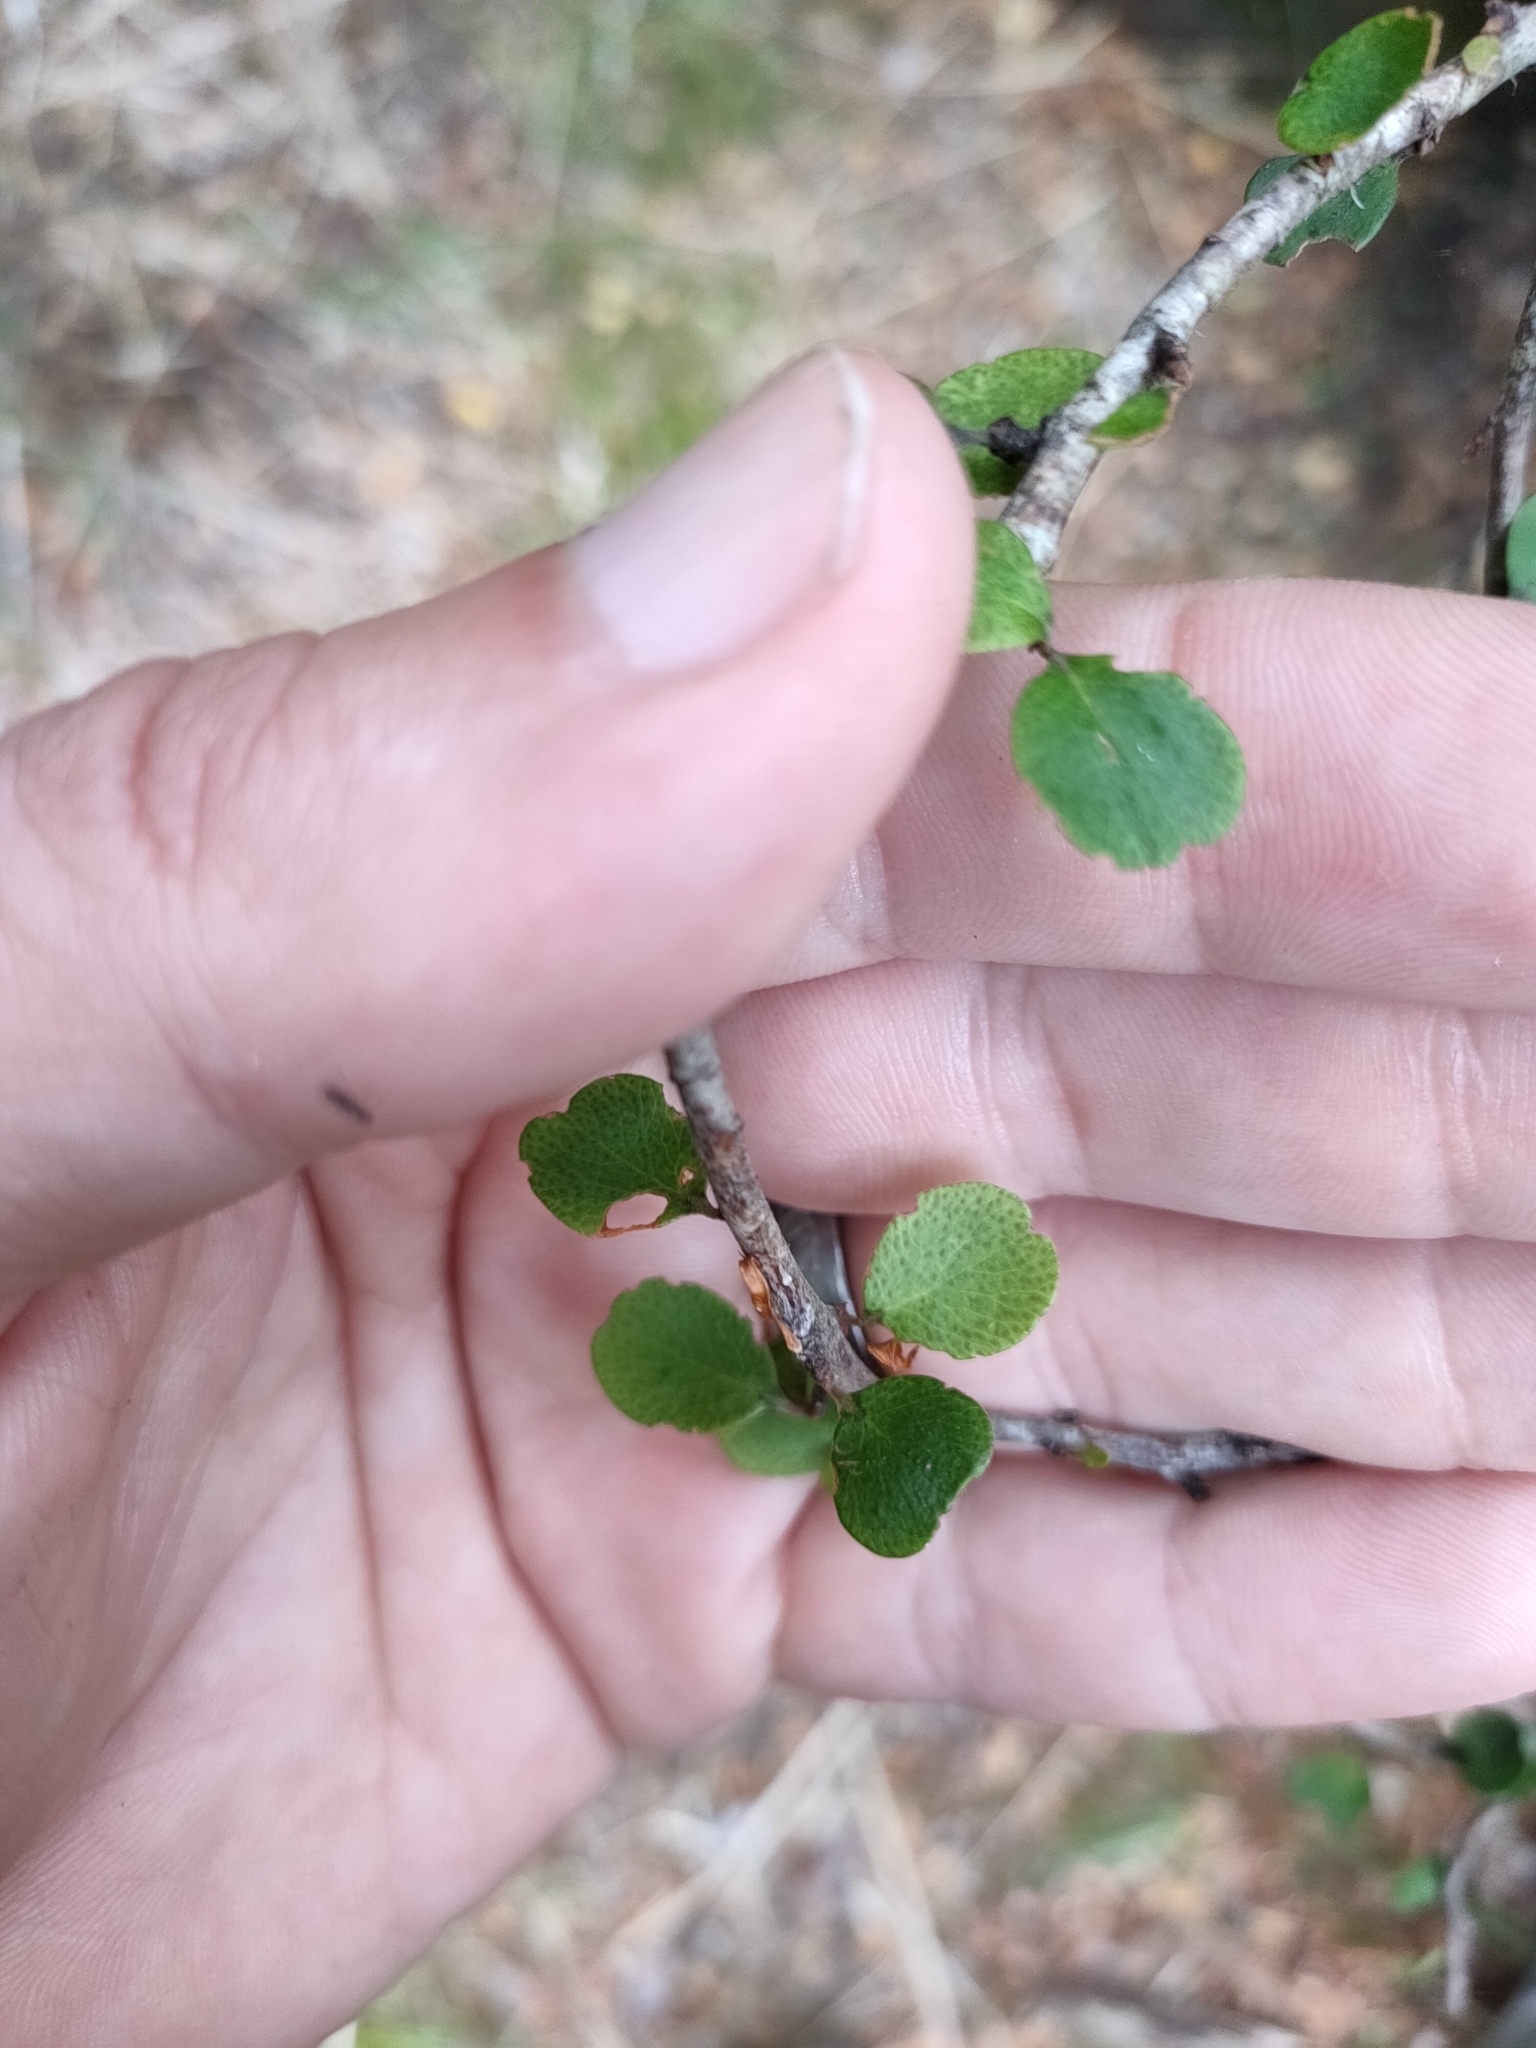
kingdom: Plantae
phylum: Tracheophyta
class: Magnoliopsida
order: Ericales
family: Primulaceae
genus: Myrsine
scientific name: Myrsine divaricata
